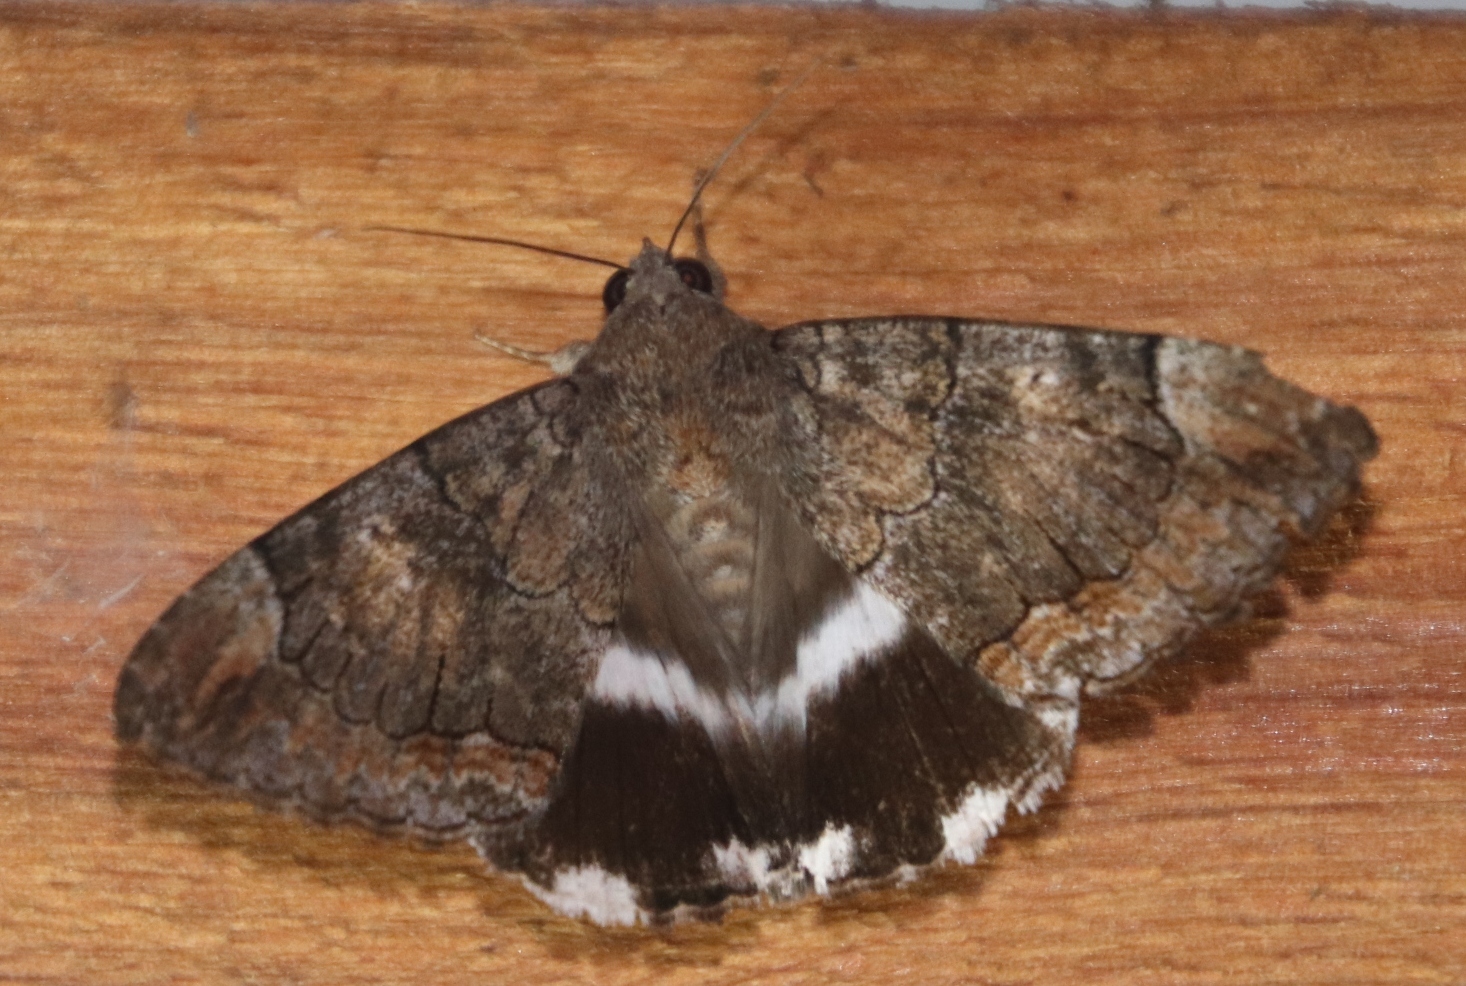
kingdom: Animalia
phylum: Arthropoda
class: Insecta
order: Lepidoptera
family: Erebidae
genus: Achaea
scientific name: Achaea catella
